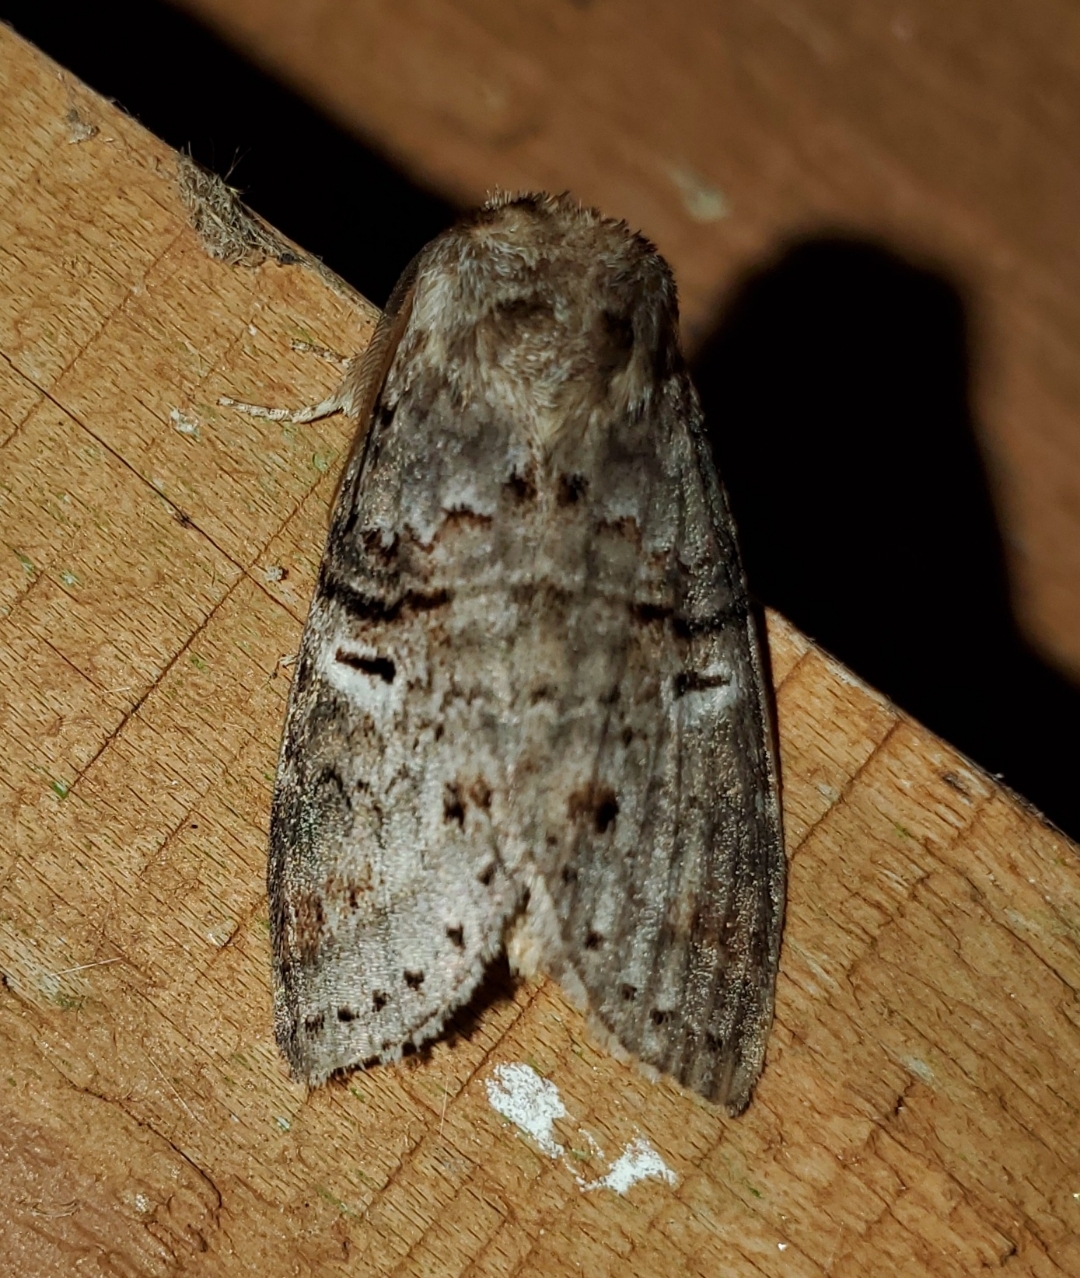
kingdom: Animalia
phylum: Arthropoda
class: Insecta
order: Lepidoptera
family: Notodontidae
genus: Ellida
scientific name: Ellida caniplaga
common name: Linden prominent
